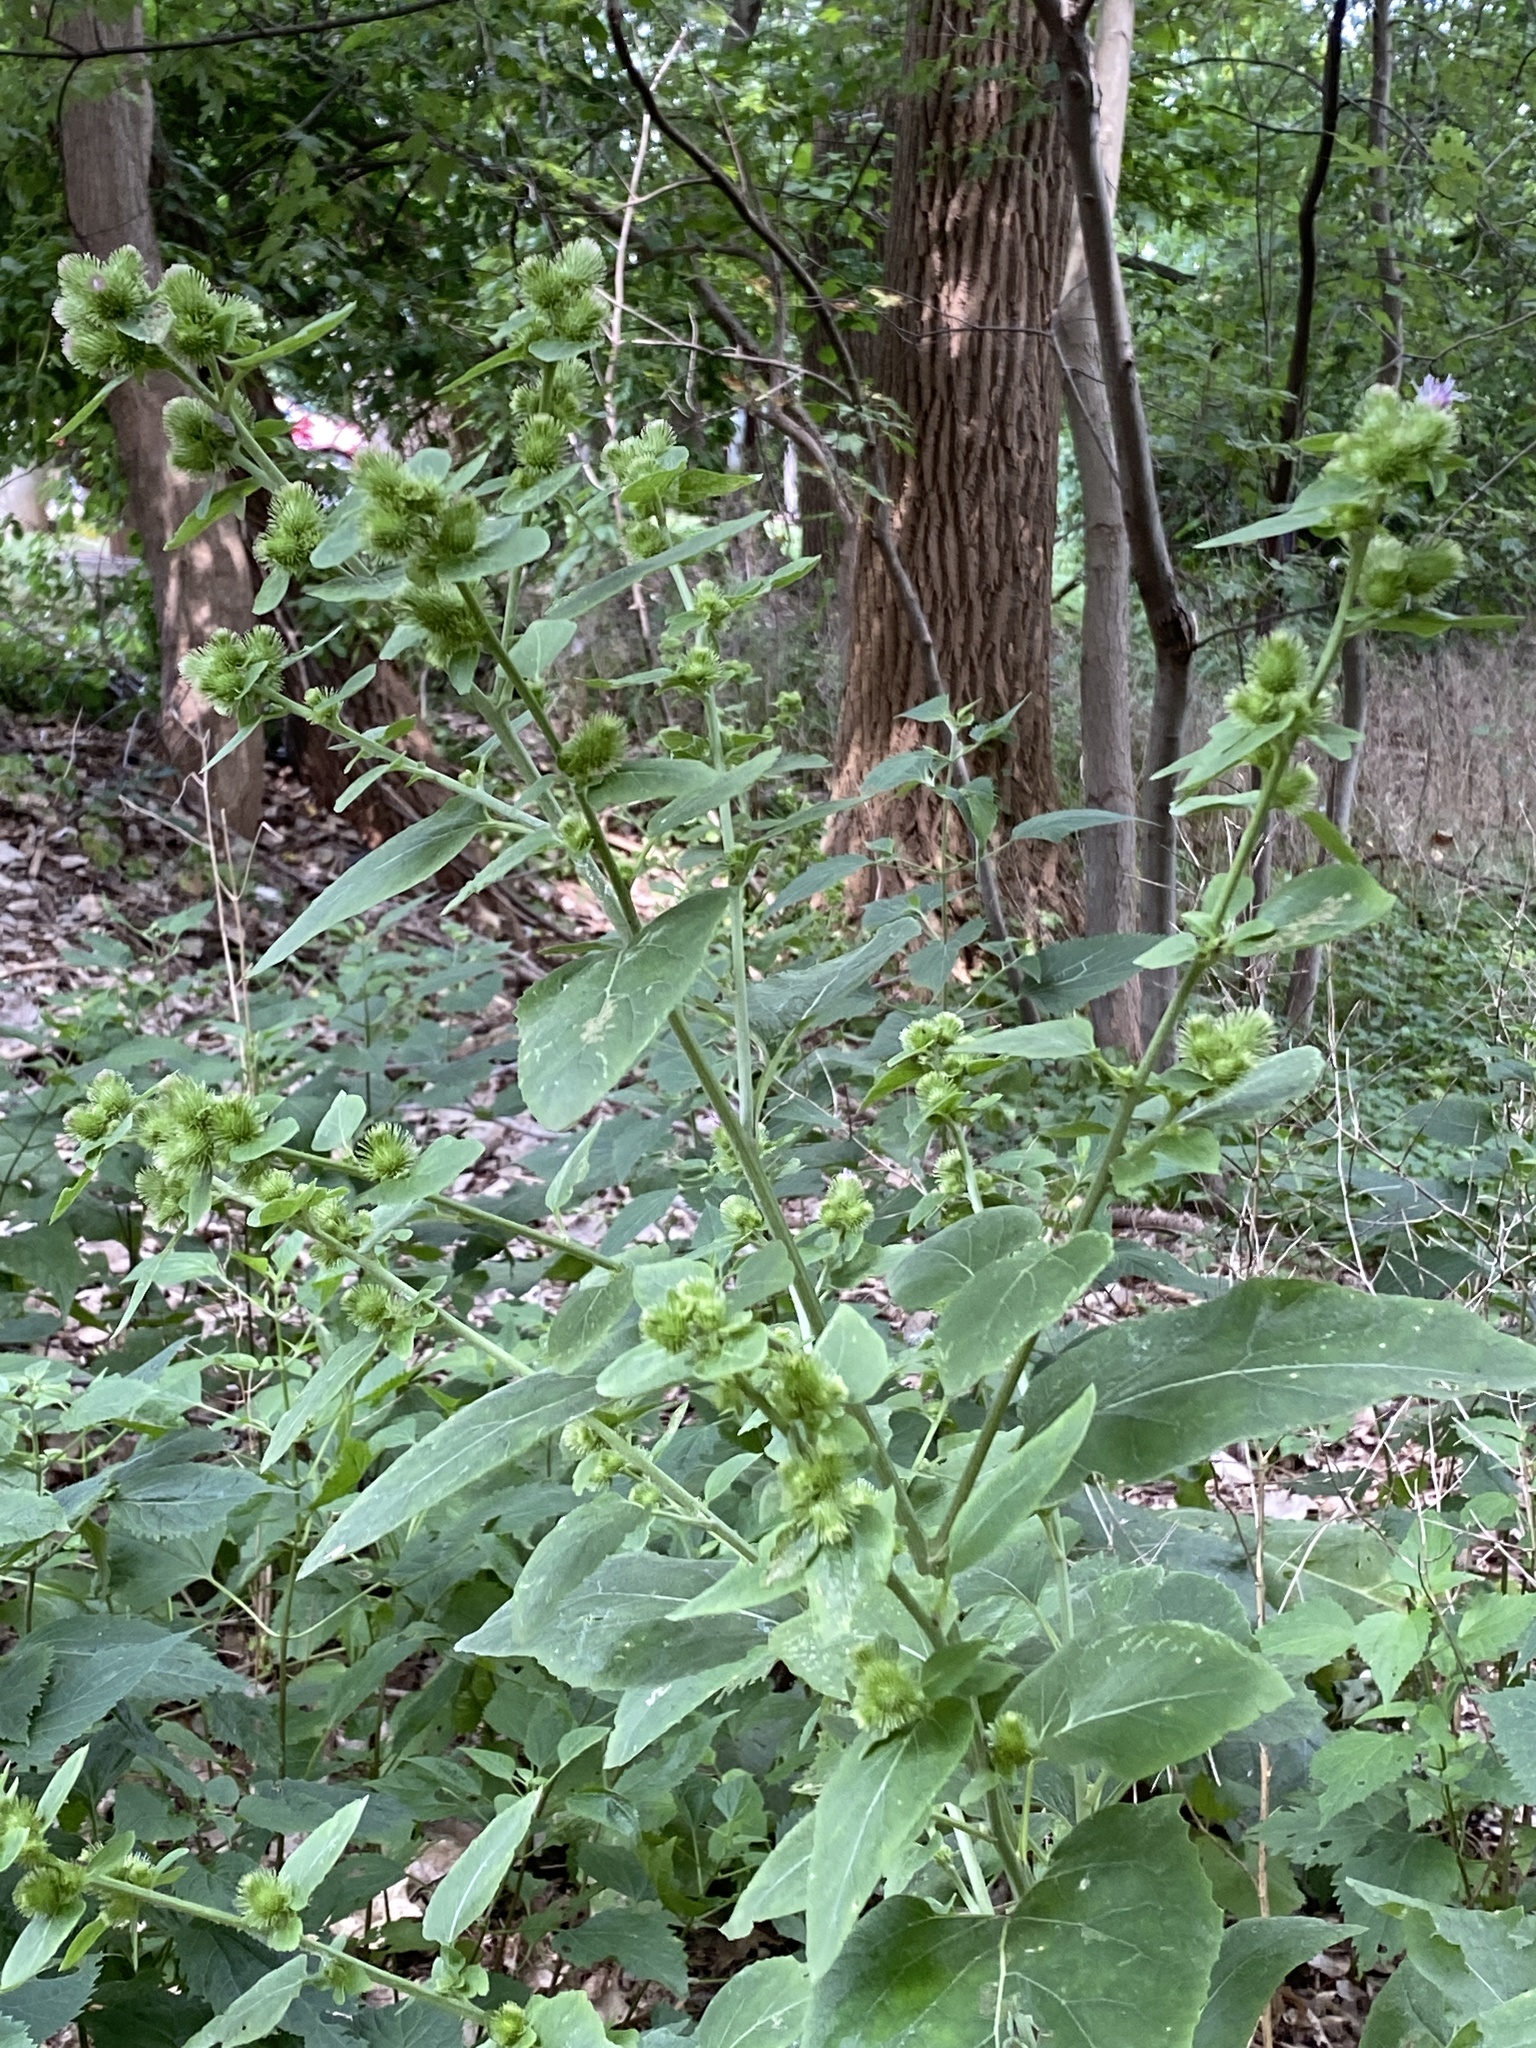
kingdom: Plantae
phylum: Tracheophyta
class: Magnoliopsida
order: Asterales
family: Asteraceae
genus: Arctium
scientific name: Arctium minus
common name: Lesser burdock
